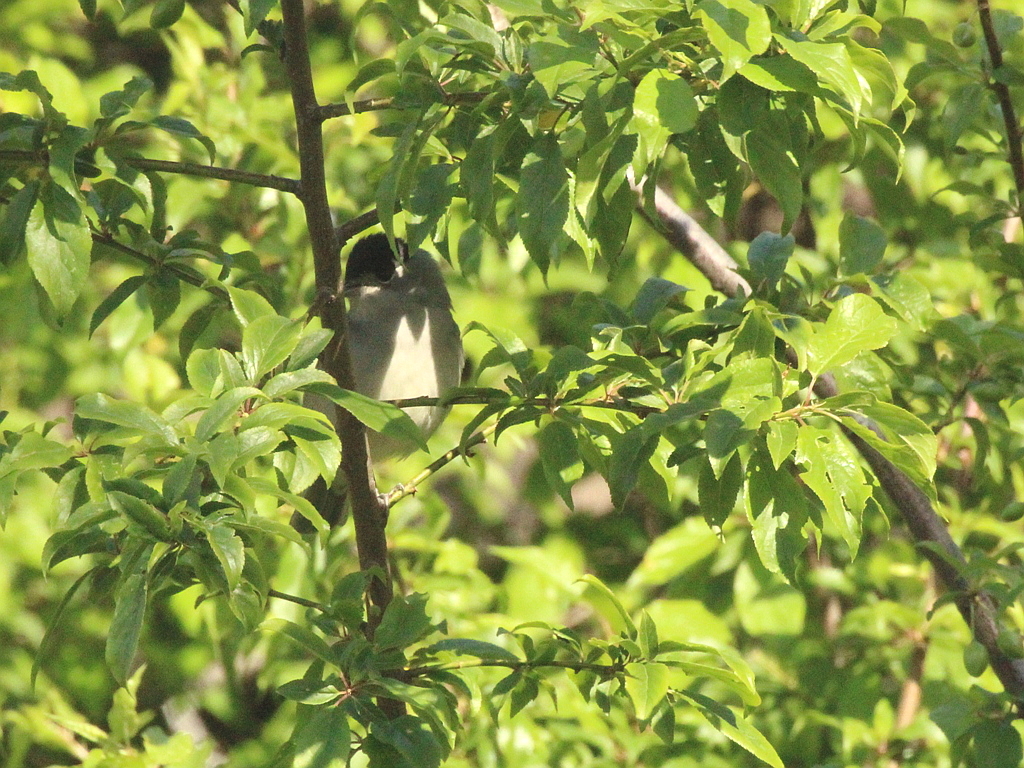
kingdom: Animalia
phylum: Chordata
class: Aves
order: Passeriformes
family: Sylviidae
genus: Sylvia
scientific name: Sylvia atricapilla
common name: Eurasian blackcap
